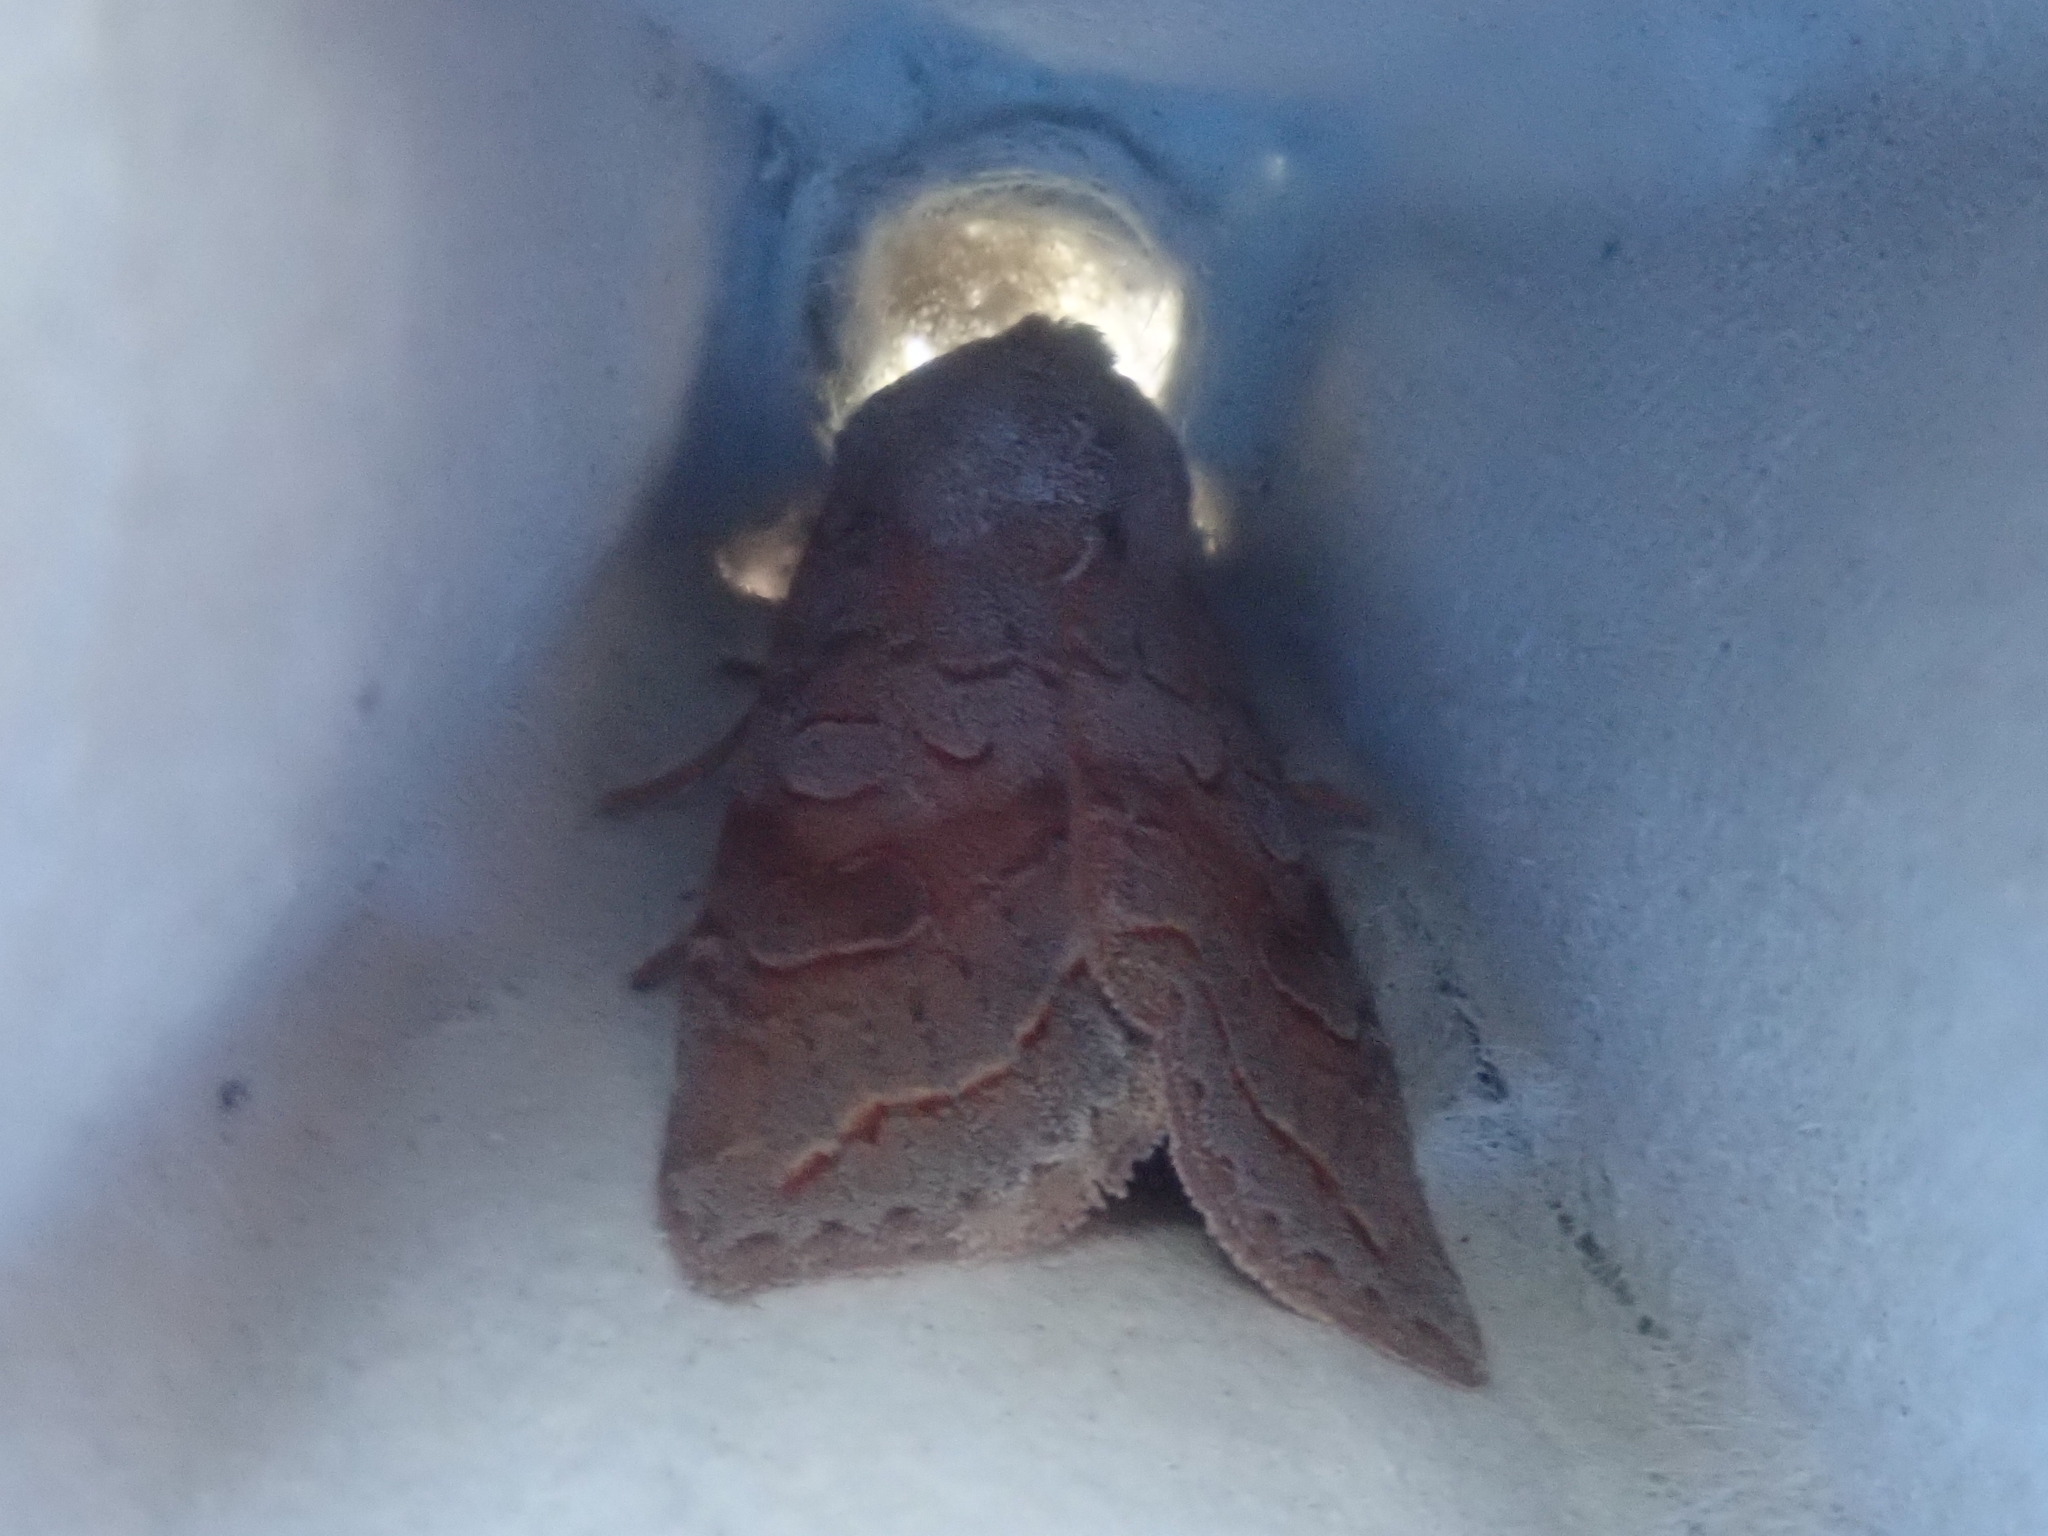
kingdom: Animalia
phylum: Arthropoda
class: Insecta
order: Lepidoptera
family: Noctuidae
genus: Orthosia
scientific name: Orthosia revicta
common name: Rusty whitesided caterpillar
